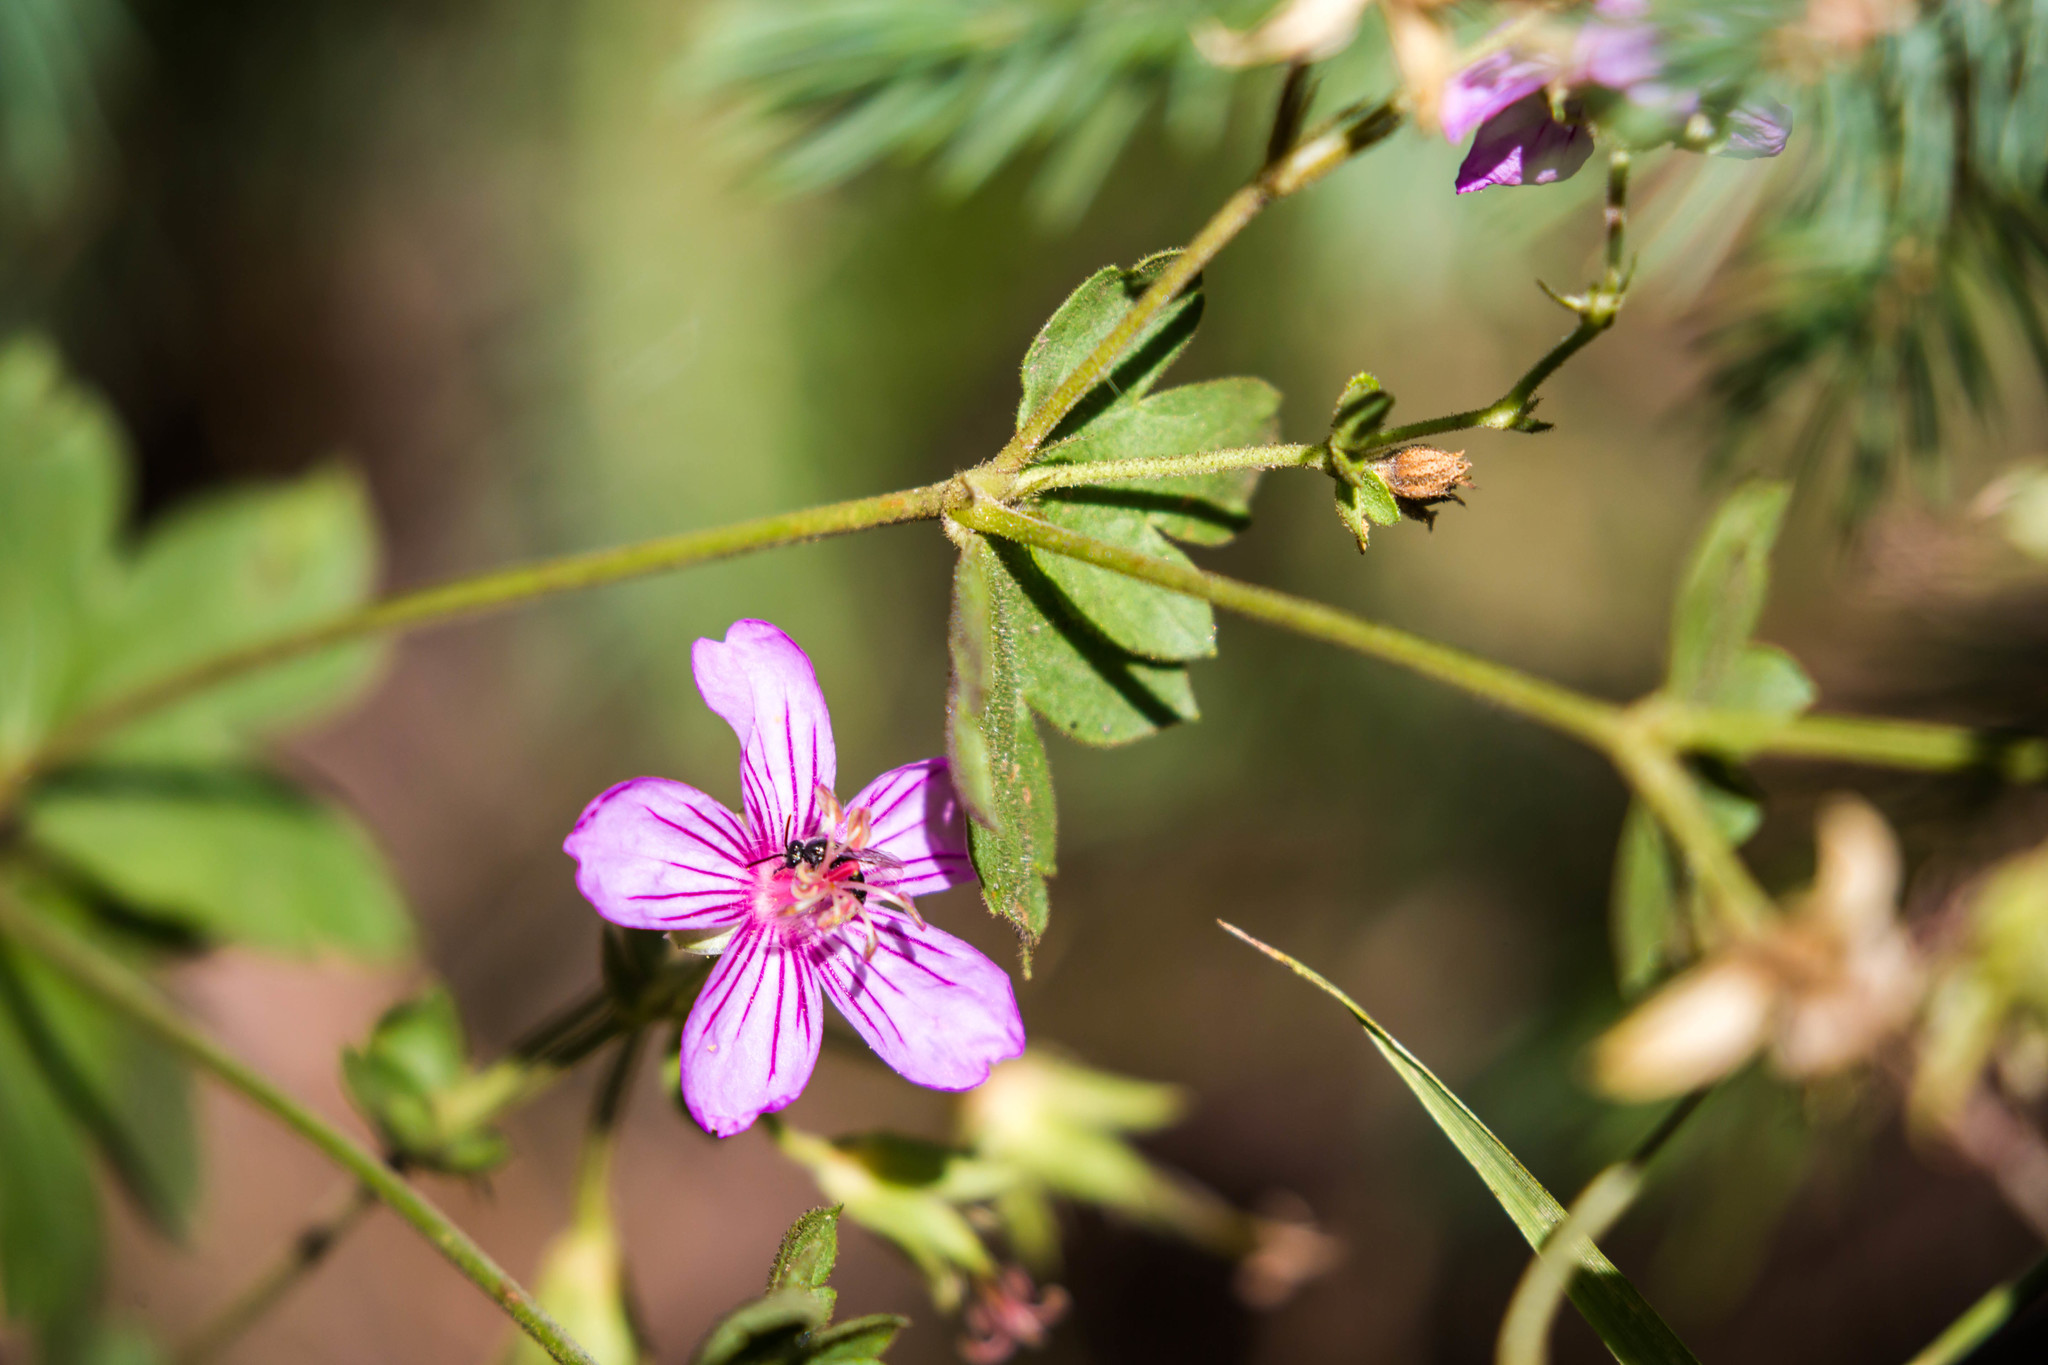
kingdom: Plantae
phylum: Tracheophyta
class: Magnoliopsida
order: Geraniales
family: Geraniaceae
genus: Geranium
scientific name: Geranium caespitosum
